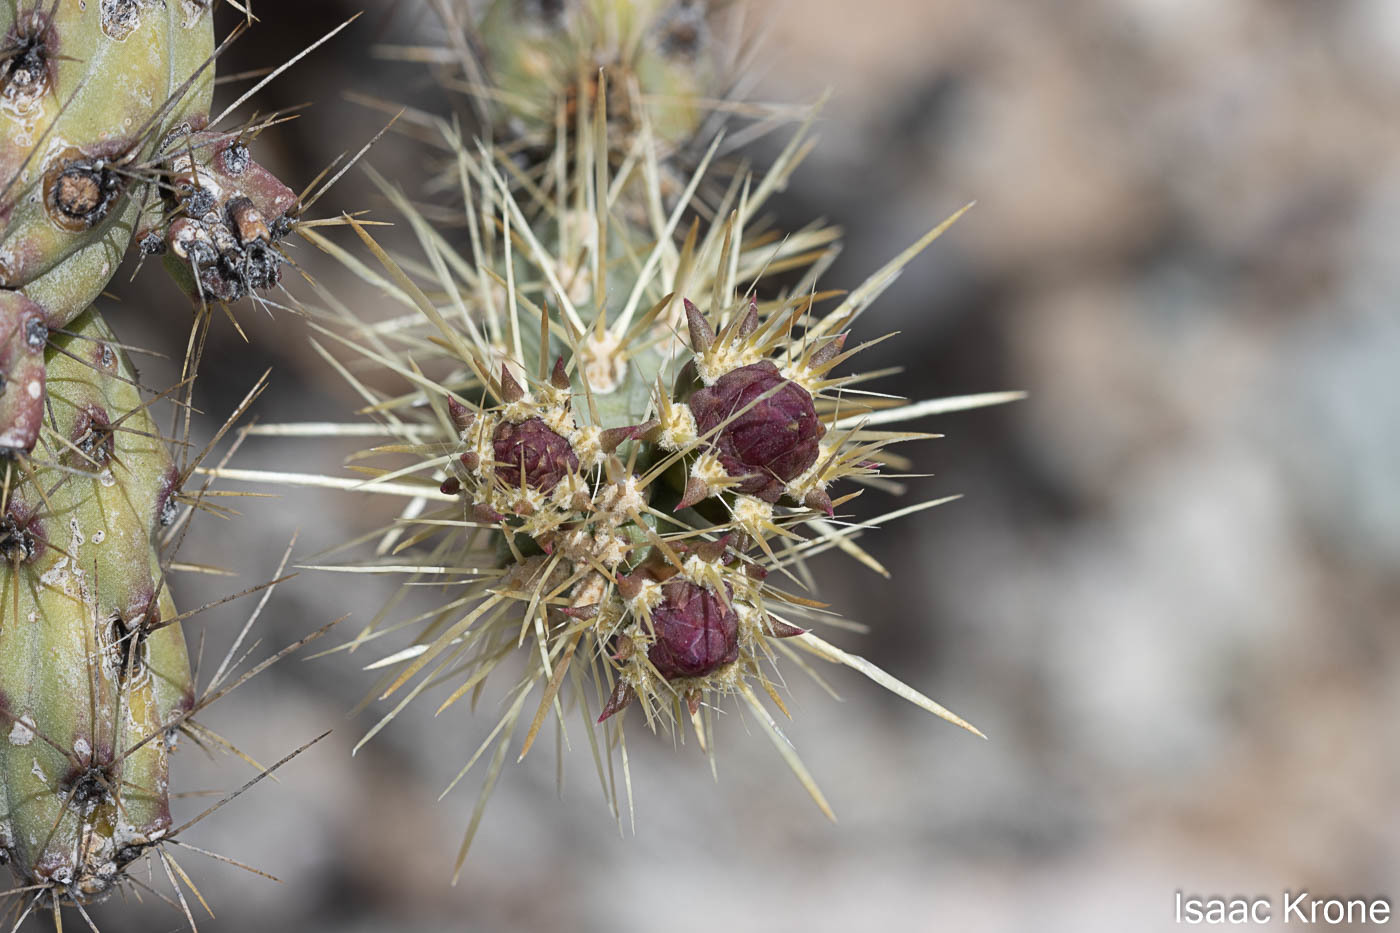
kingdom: Plantae
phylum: Tracheophyta
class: Magnoliopsida
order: Caryophyllales
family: Cactaceae
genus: Cylindropuntia
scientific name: Cylindropuntia acanthocarpa
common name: Buckhorn cholla
